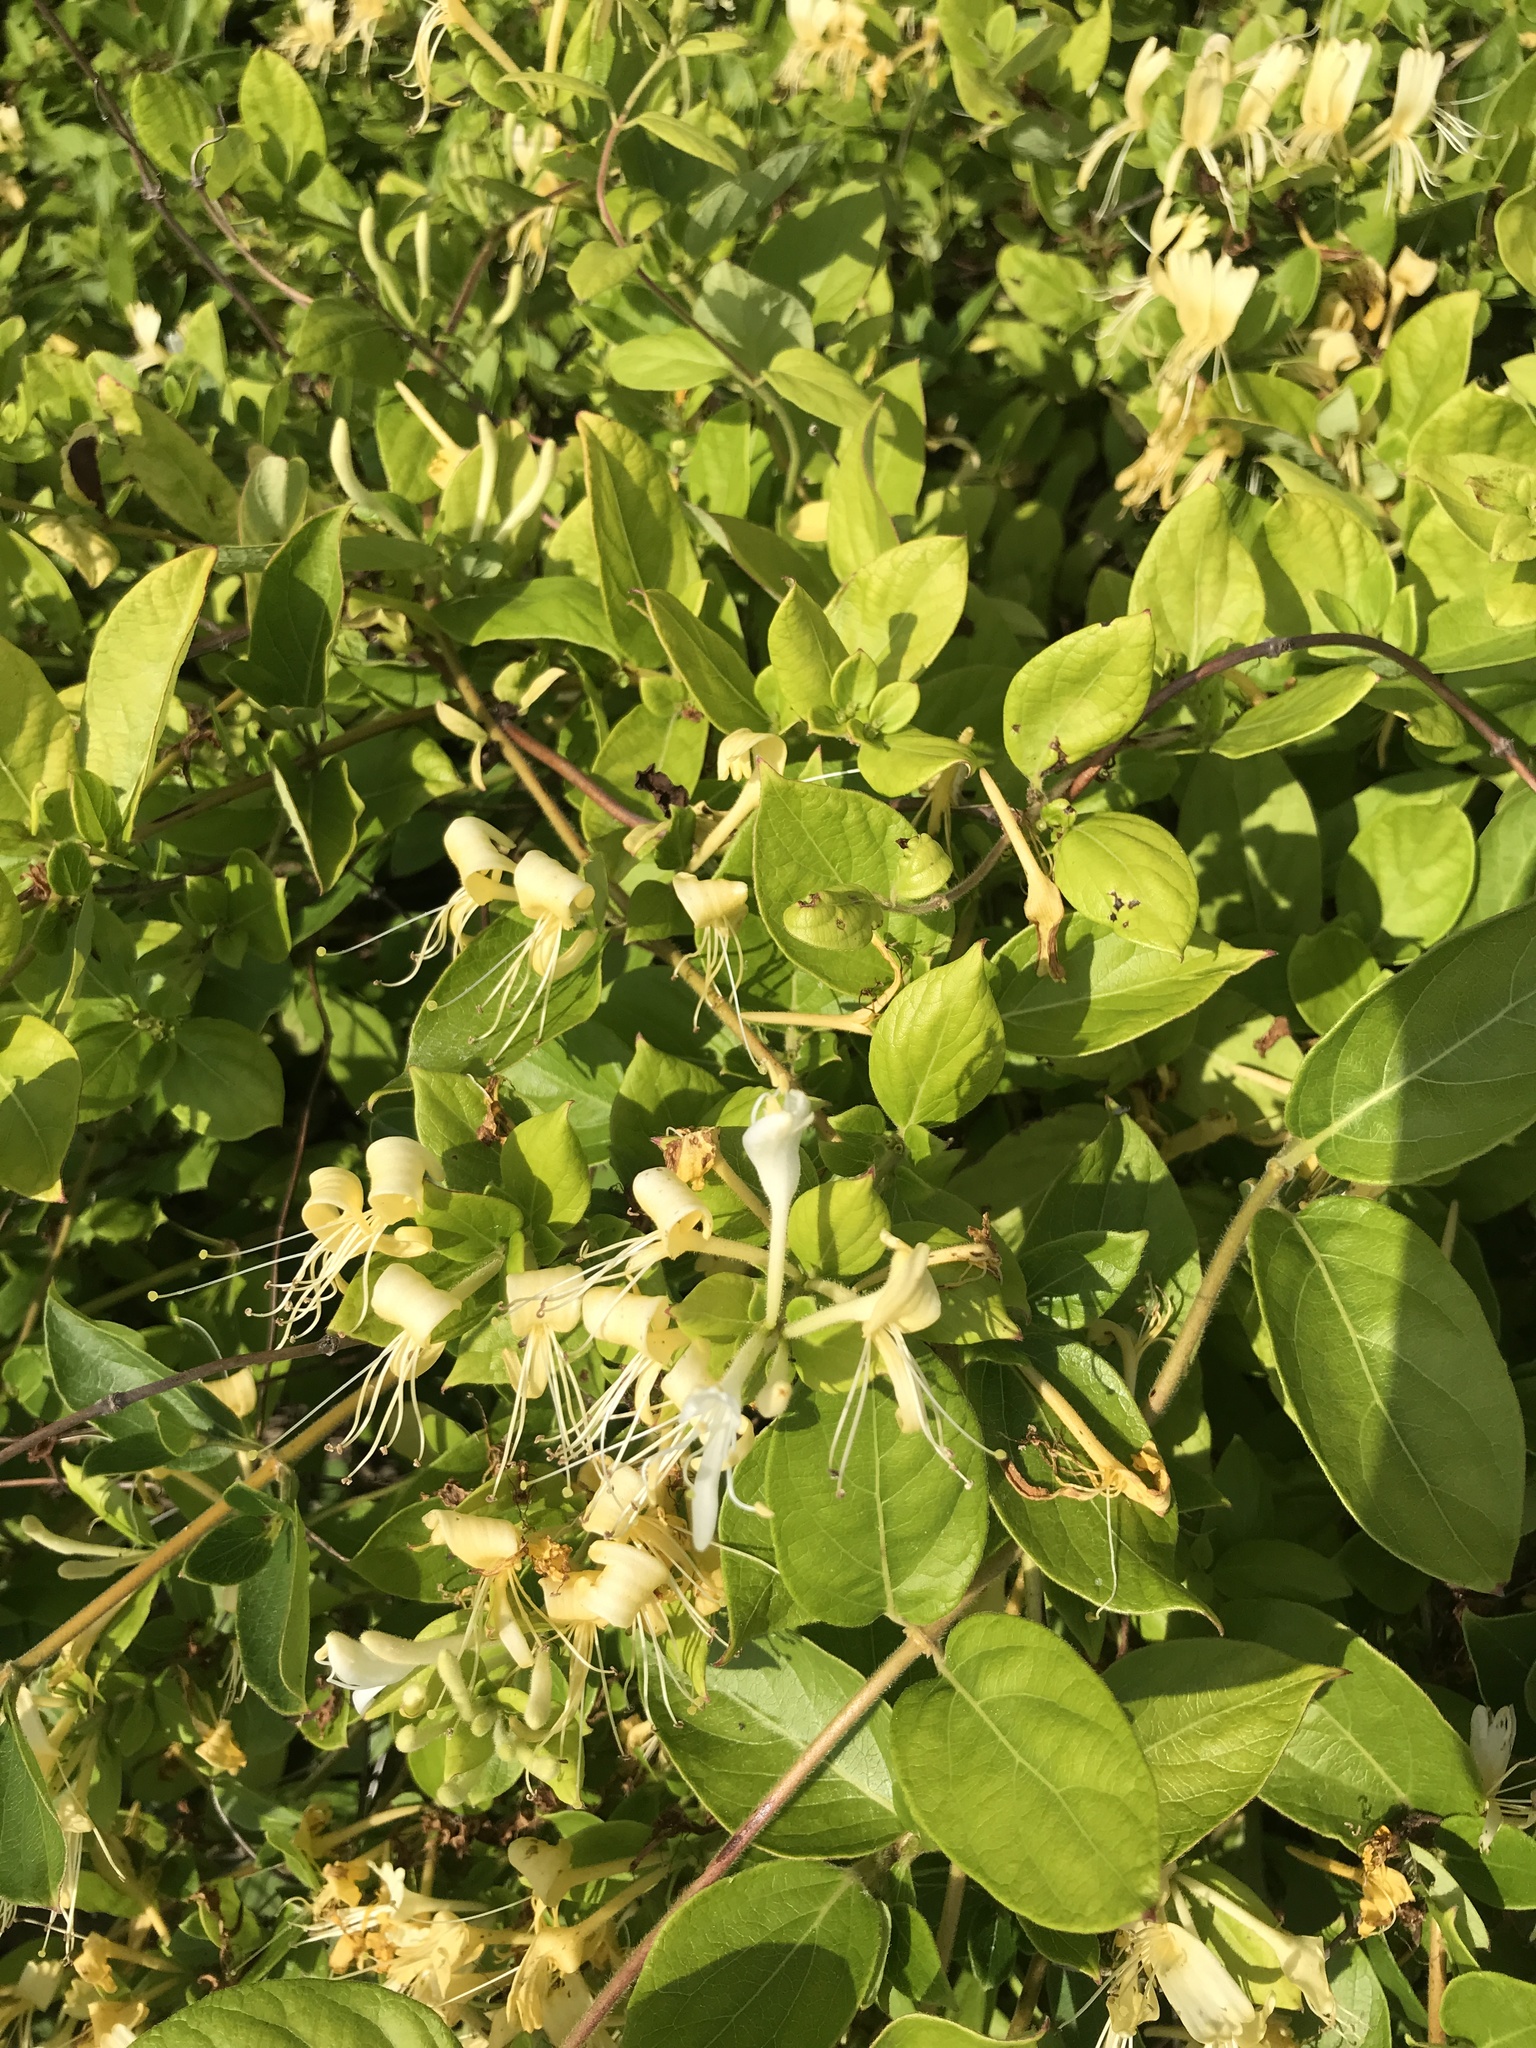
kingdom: Plantae
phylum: Tracheophyta
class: Magnoliopsida
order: Dipsacales
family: Caprifoliaceae
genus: Lonicera
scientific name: Lonicera japonica
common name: Japanese honeysuckle
